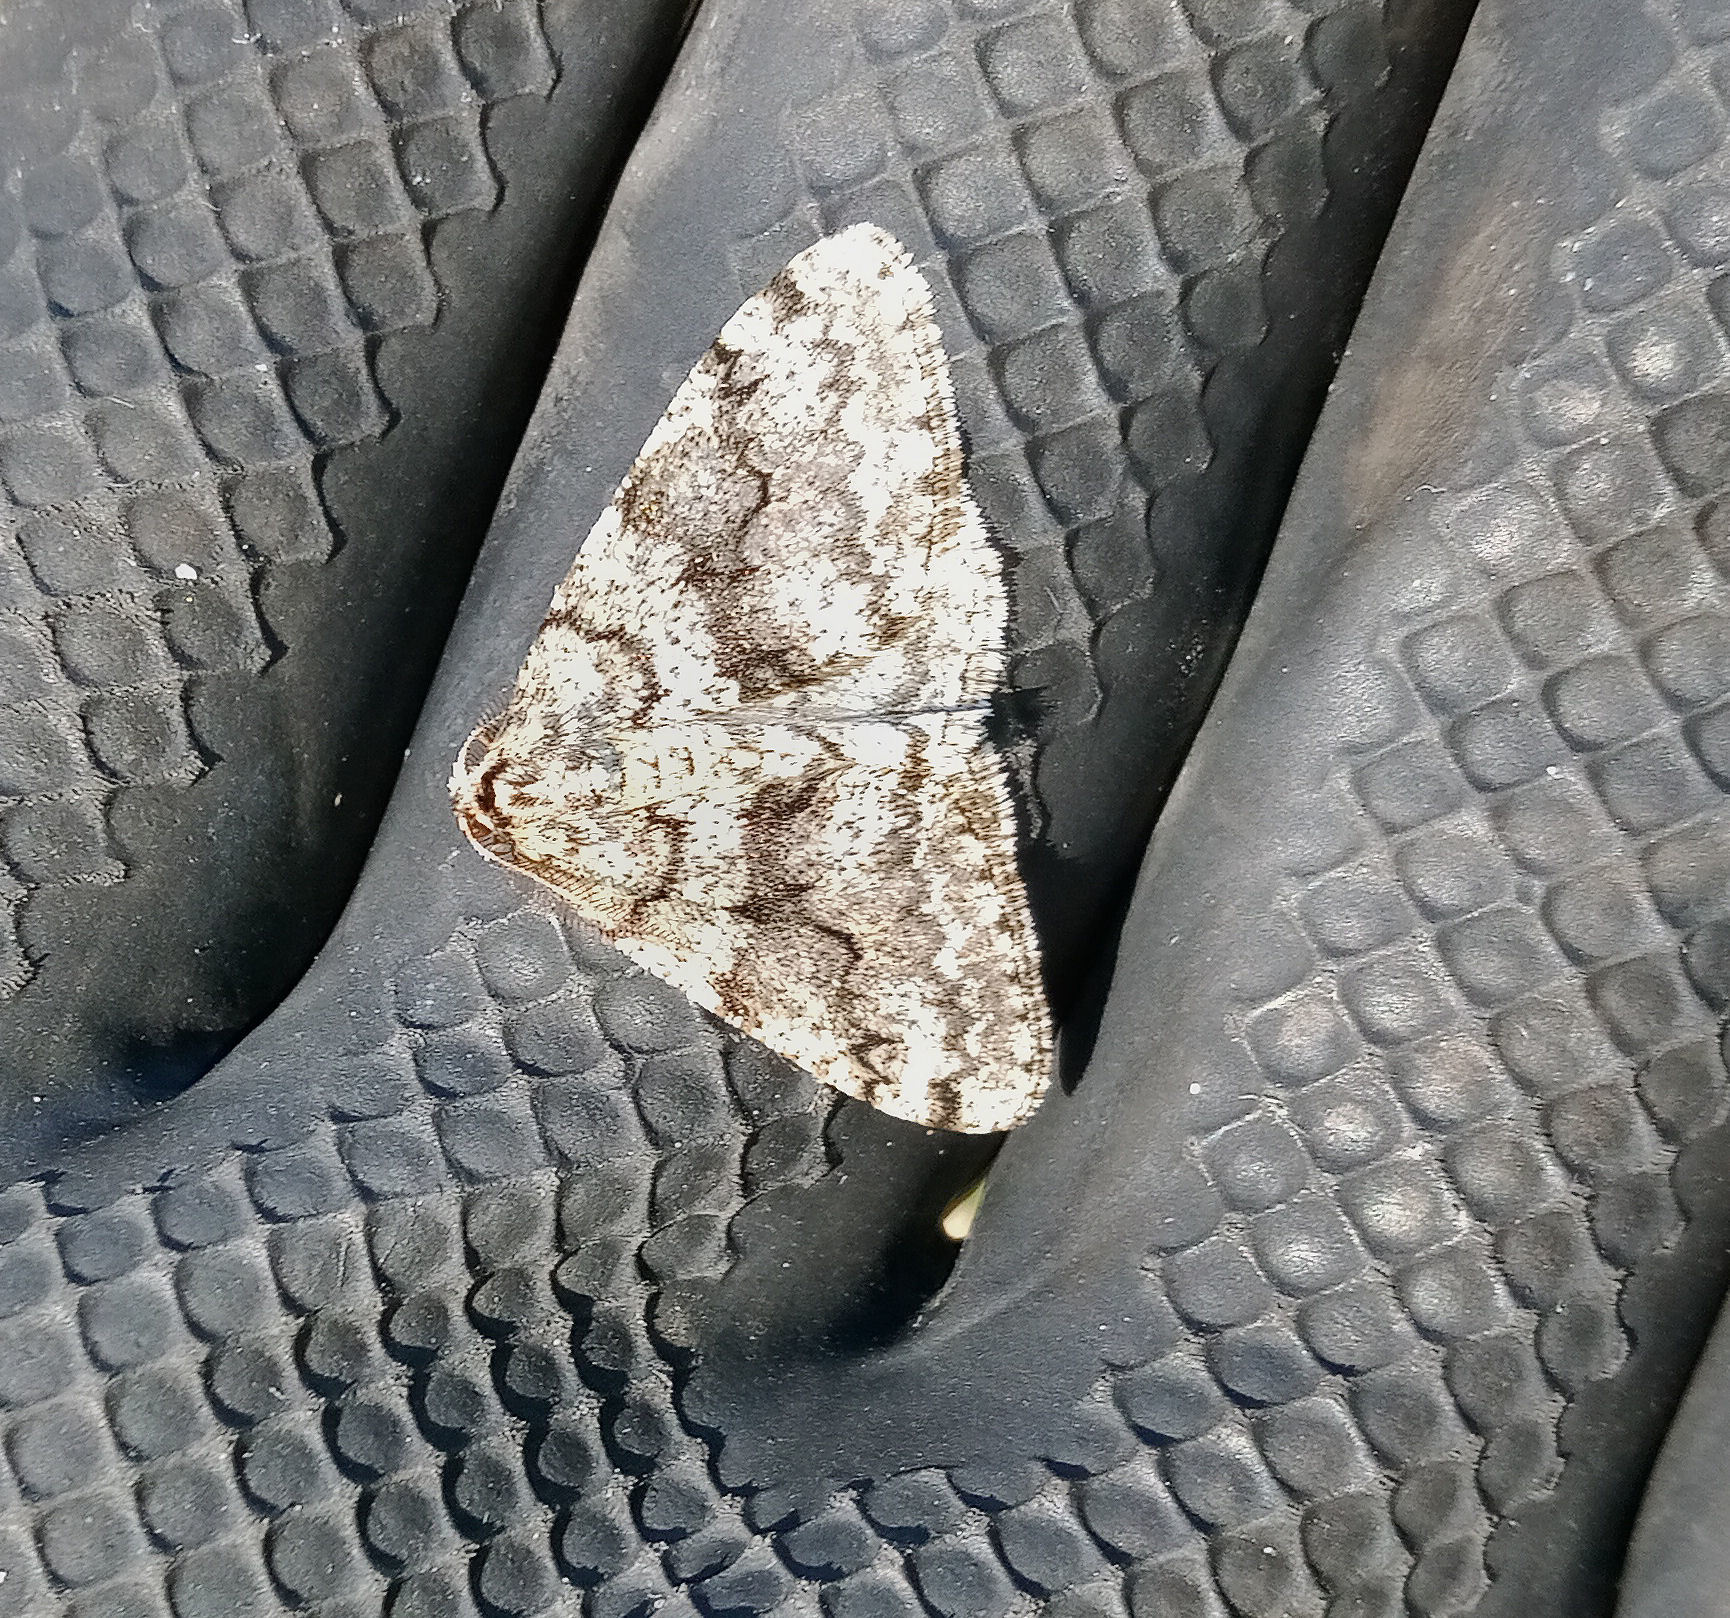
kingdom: Animalia
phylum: Arthropoda
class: Insecta
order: Lepidoptera
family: Geometridae
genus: Phigalia
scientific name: Phigalia denticulata
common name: Toothed phigalia
